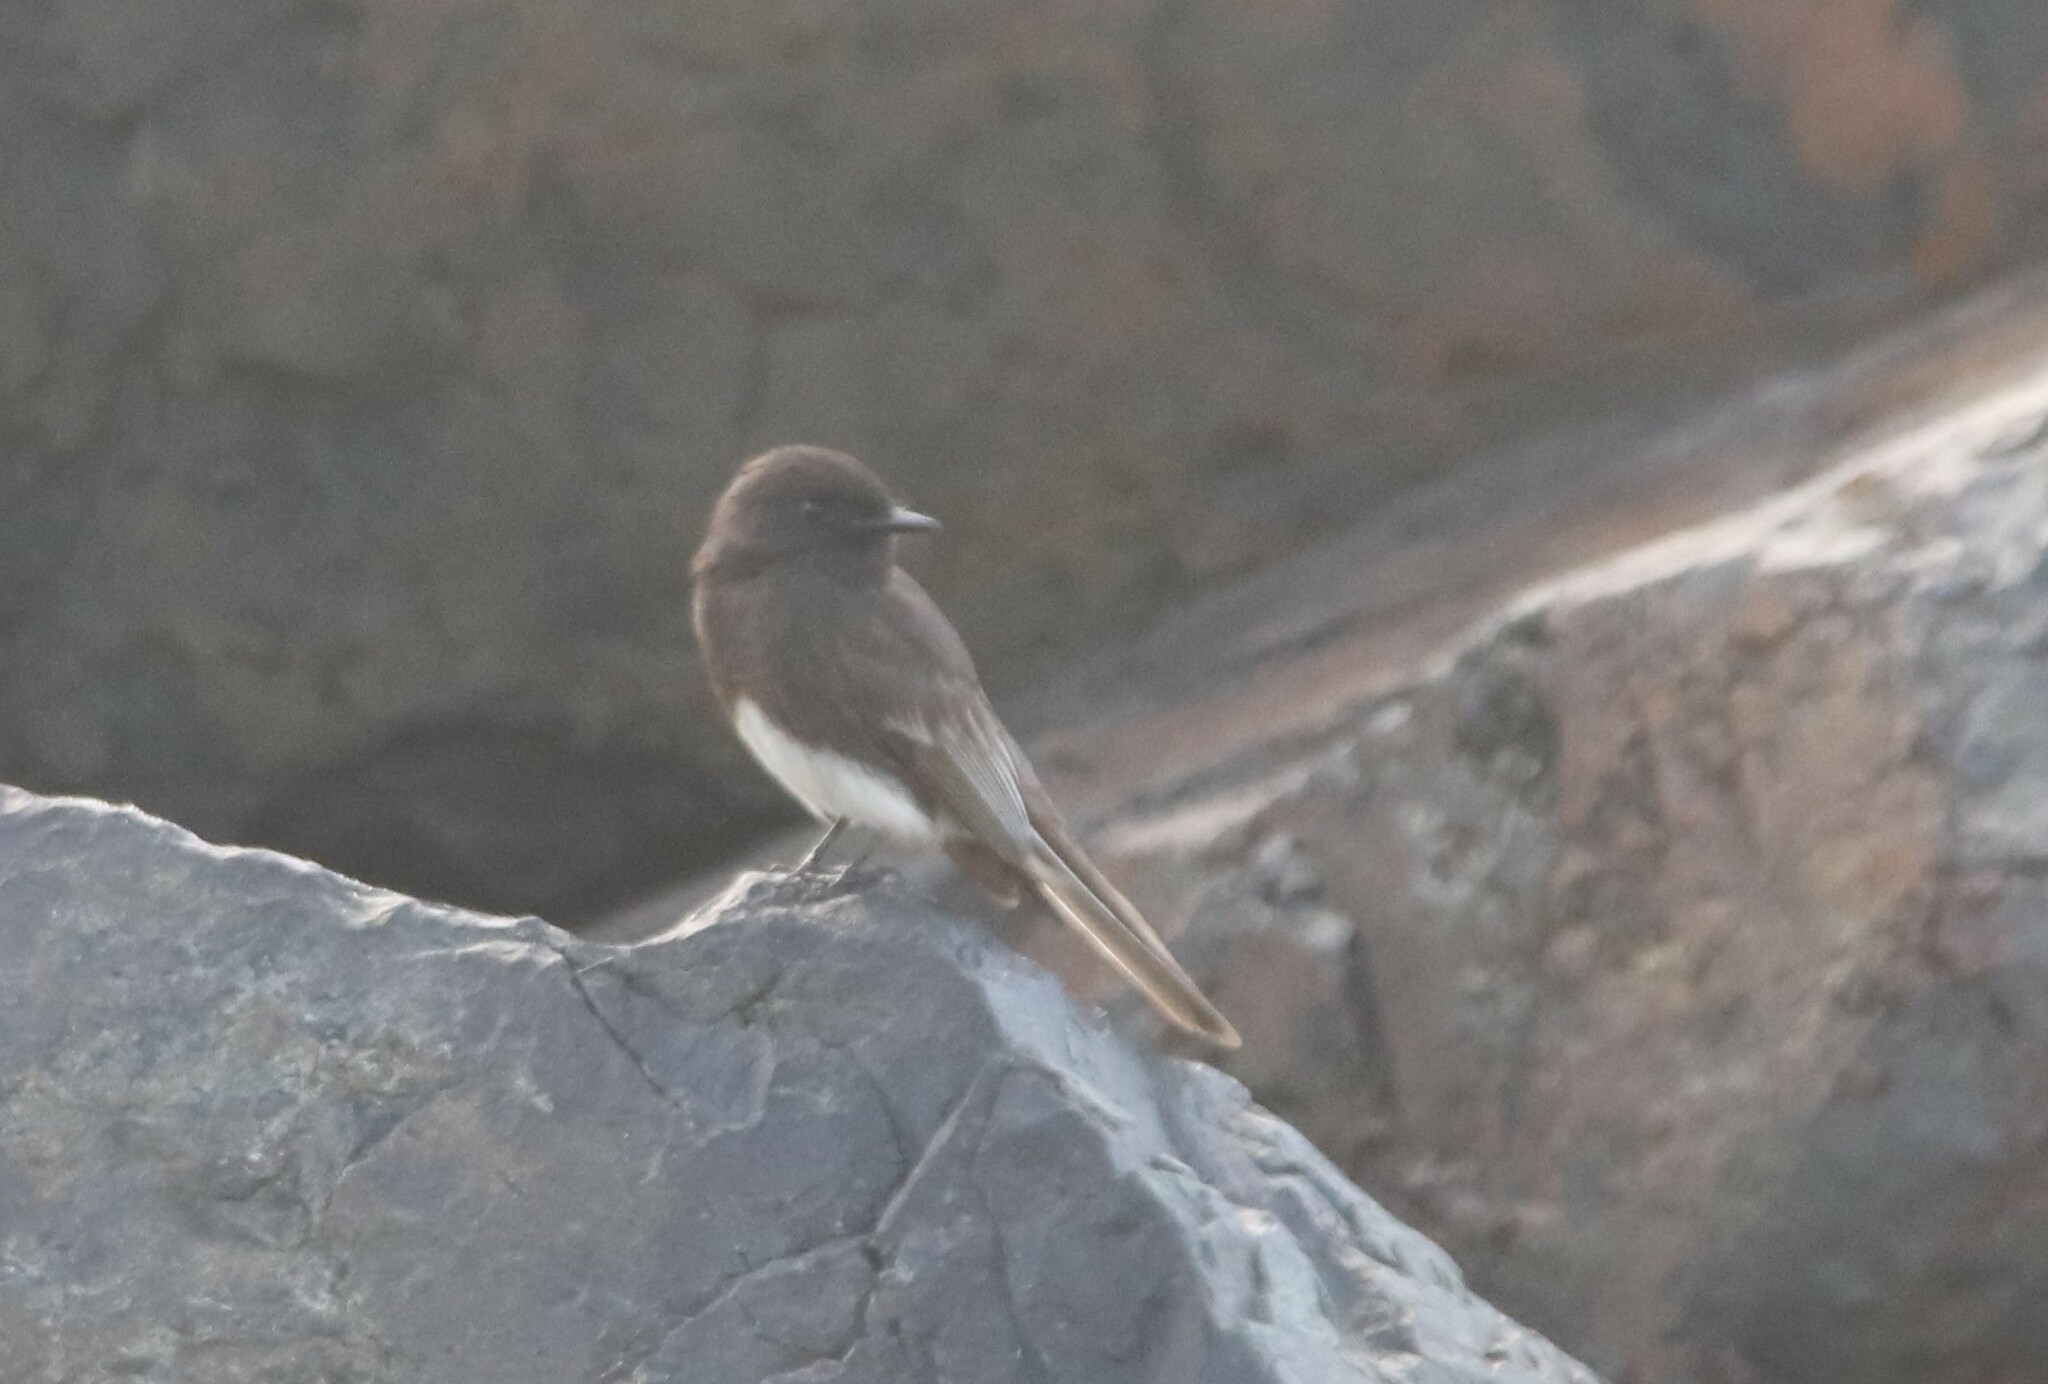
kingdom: Animalia
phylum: Chordata
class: Aves
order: Passeriformes
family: Tyrannidae
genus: Sayornis
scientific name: Sayornis nigricans
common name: Black phoebe
